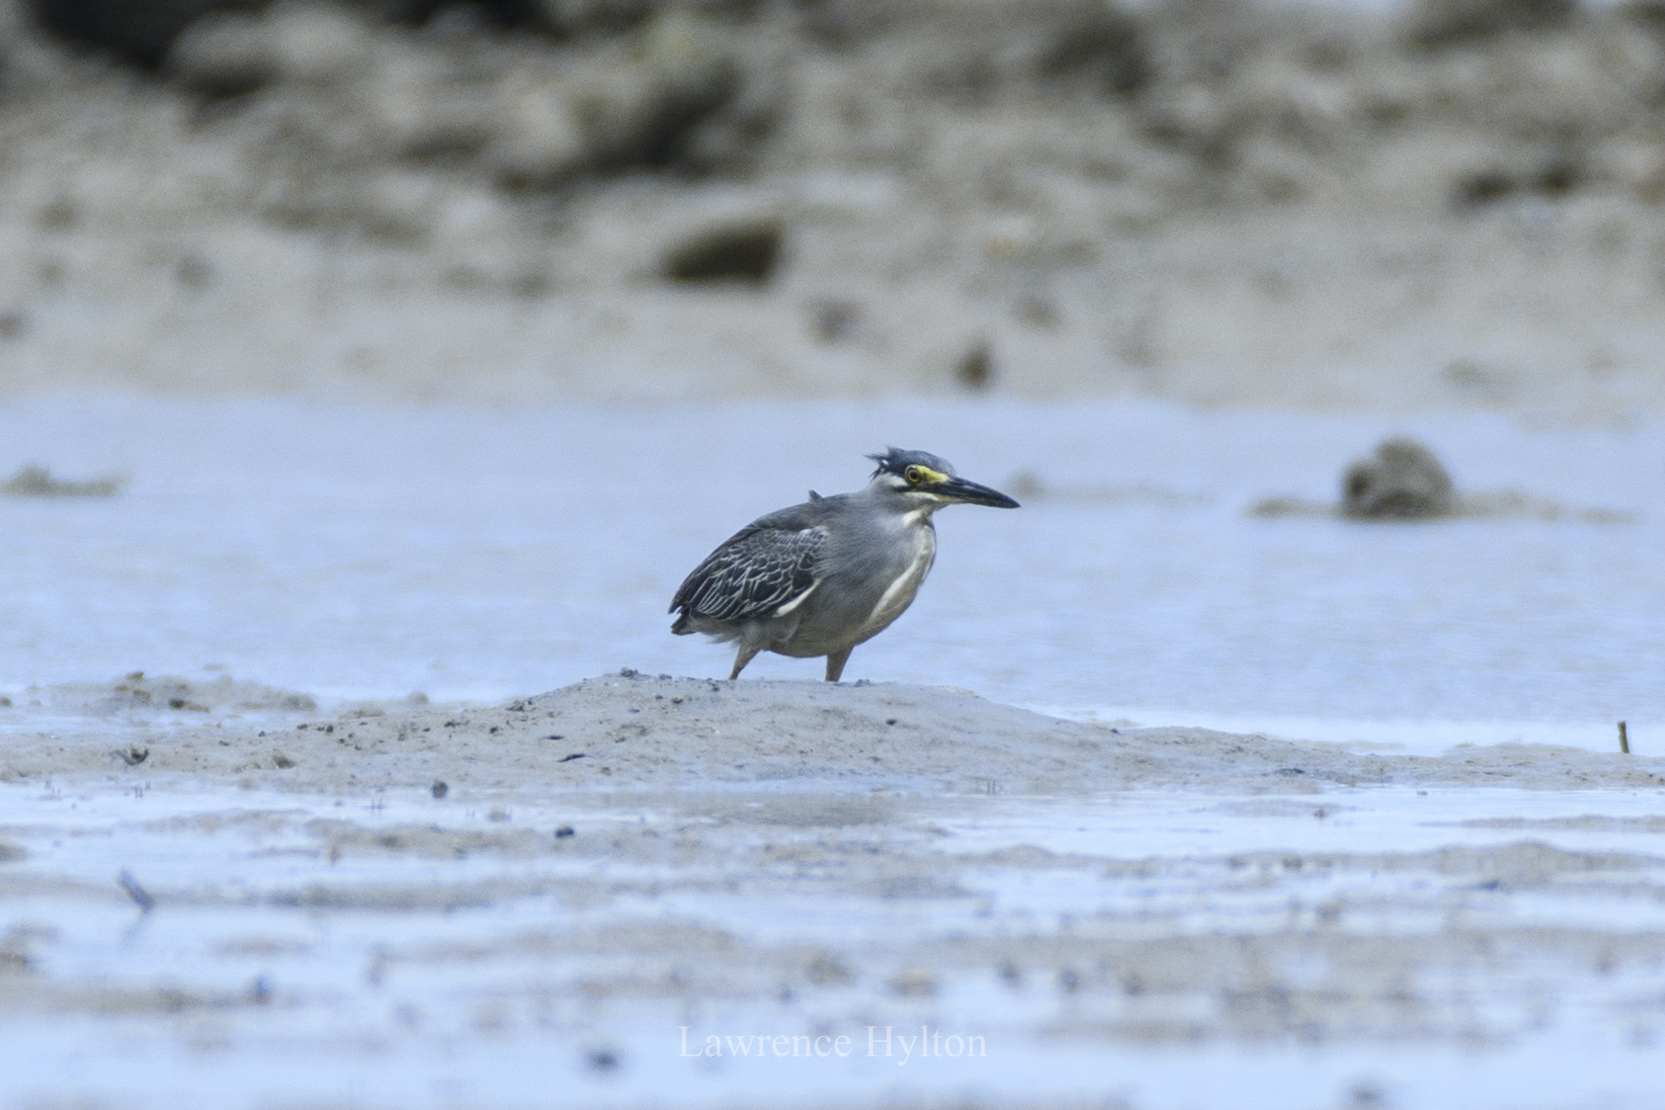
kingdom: Animalia
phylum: Chordata
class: Aves
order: Pelecaniformes
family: Ardeidae
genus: Butorides
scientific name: Butorides striata
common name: Striated heron
